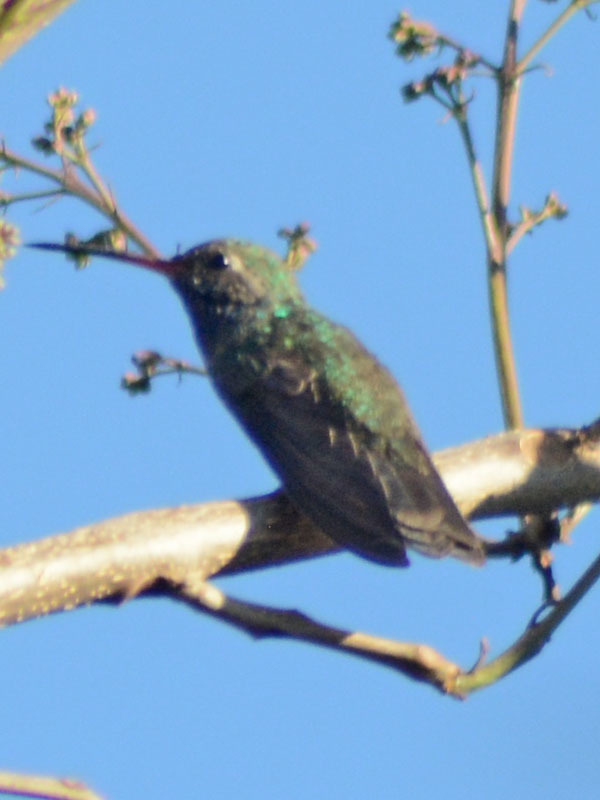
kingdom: Animalia
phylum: Chordata
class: Aves
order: Apodiformes
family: Trochilidae
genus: Cynanthus
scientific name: Cynanthus latirostris
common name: Broad-billed hummingbird
